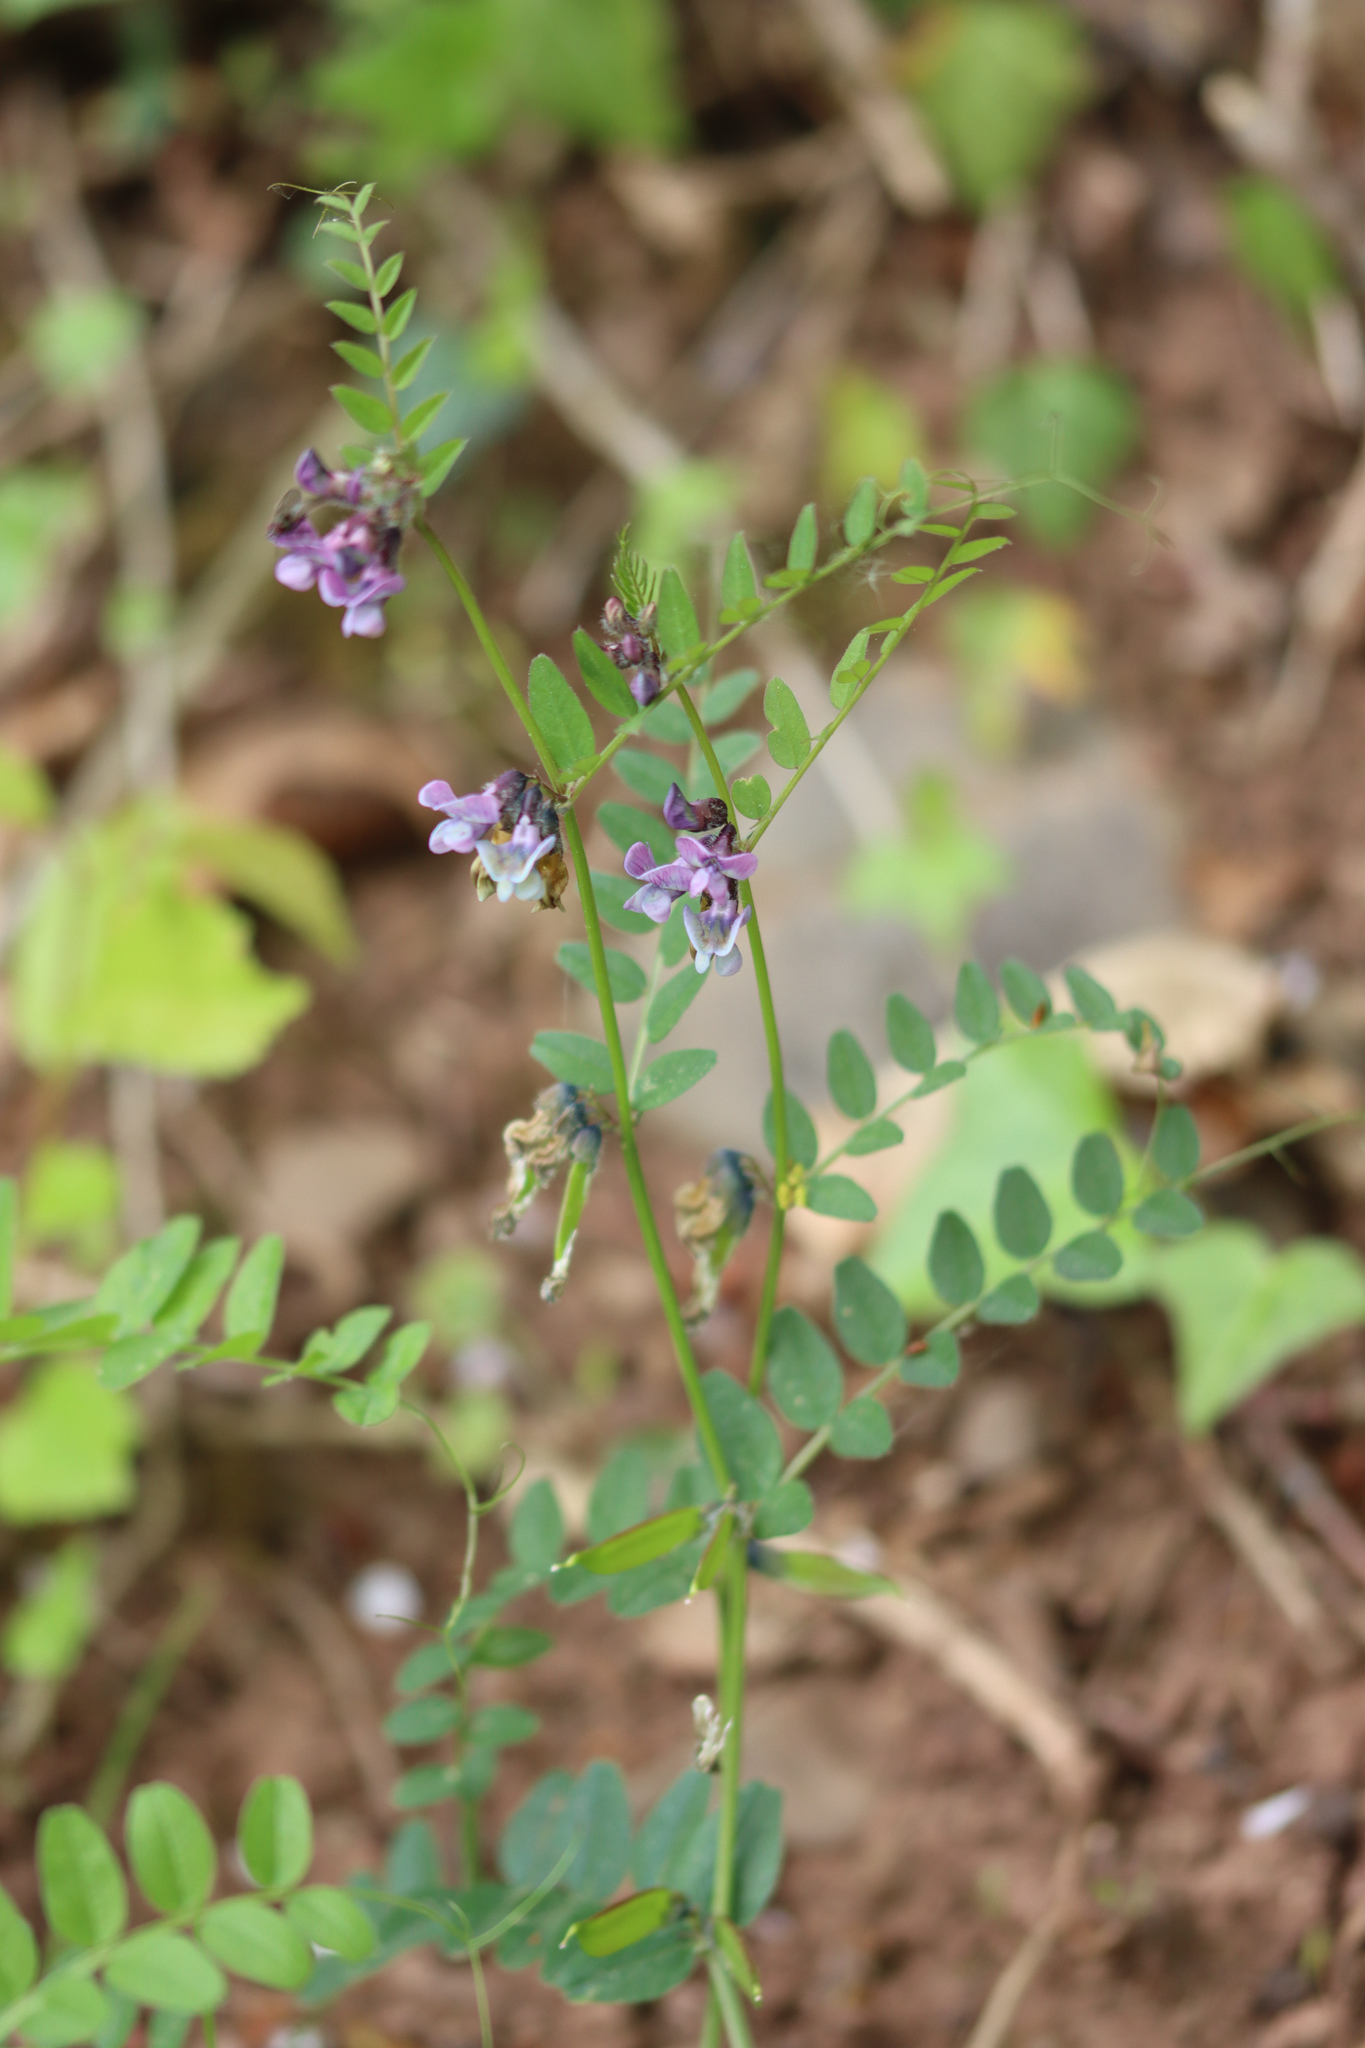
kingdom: Plantae
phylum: Tracheophyta
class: Magnoliopsida
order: Fabales
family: Fabaceae
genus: Vicia
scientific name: Vicia sepium
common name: Bush vetch
